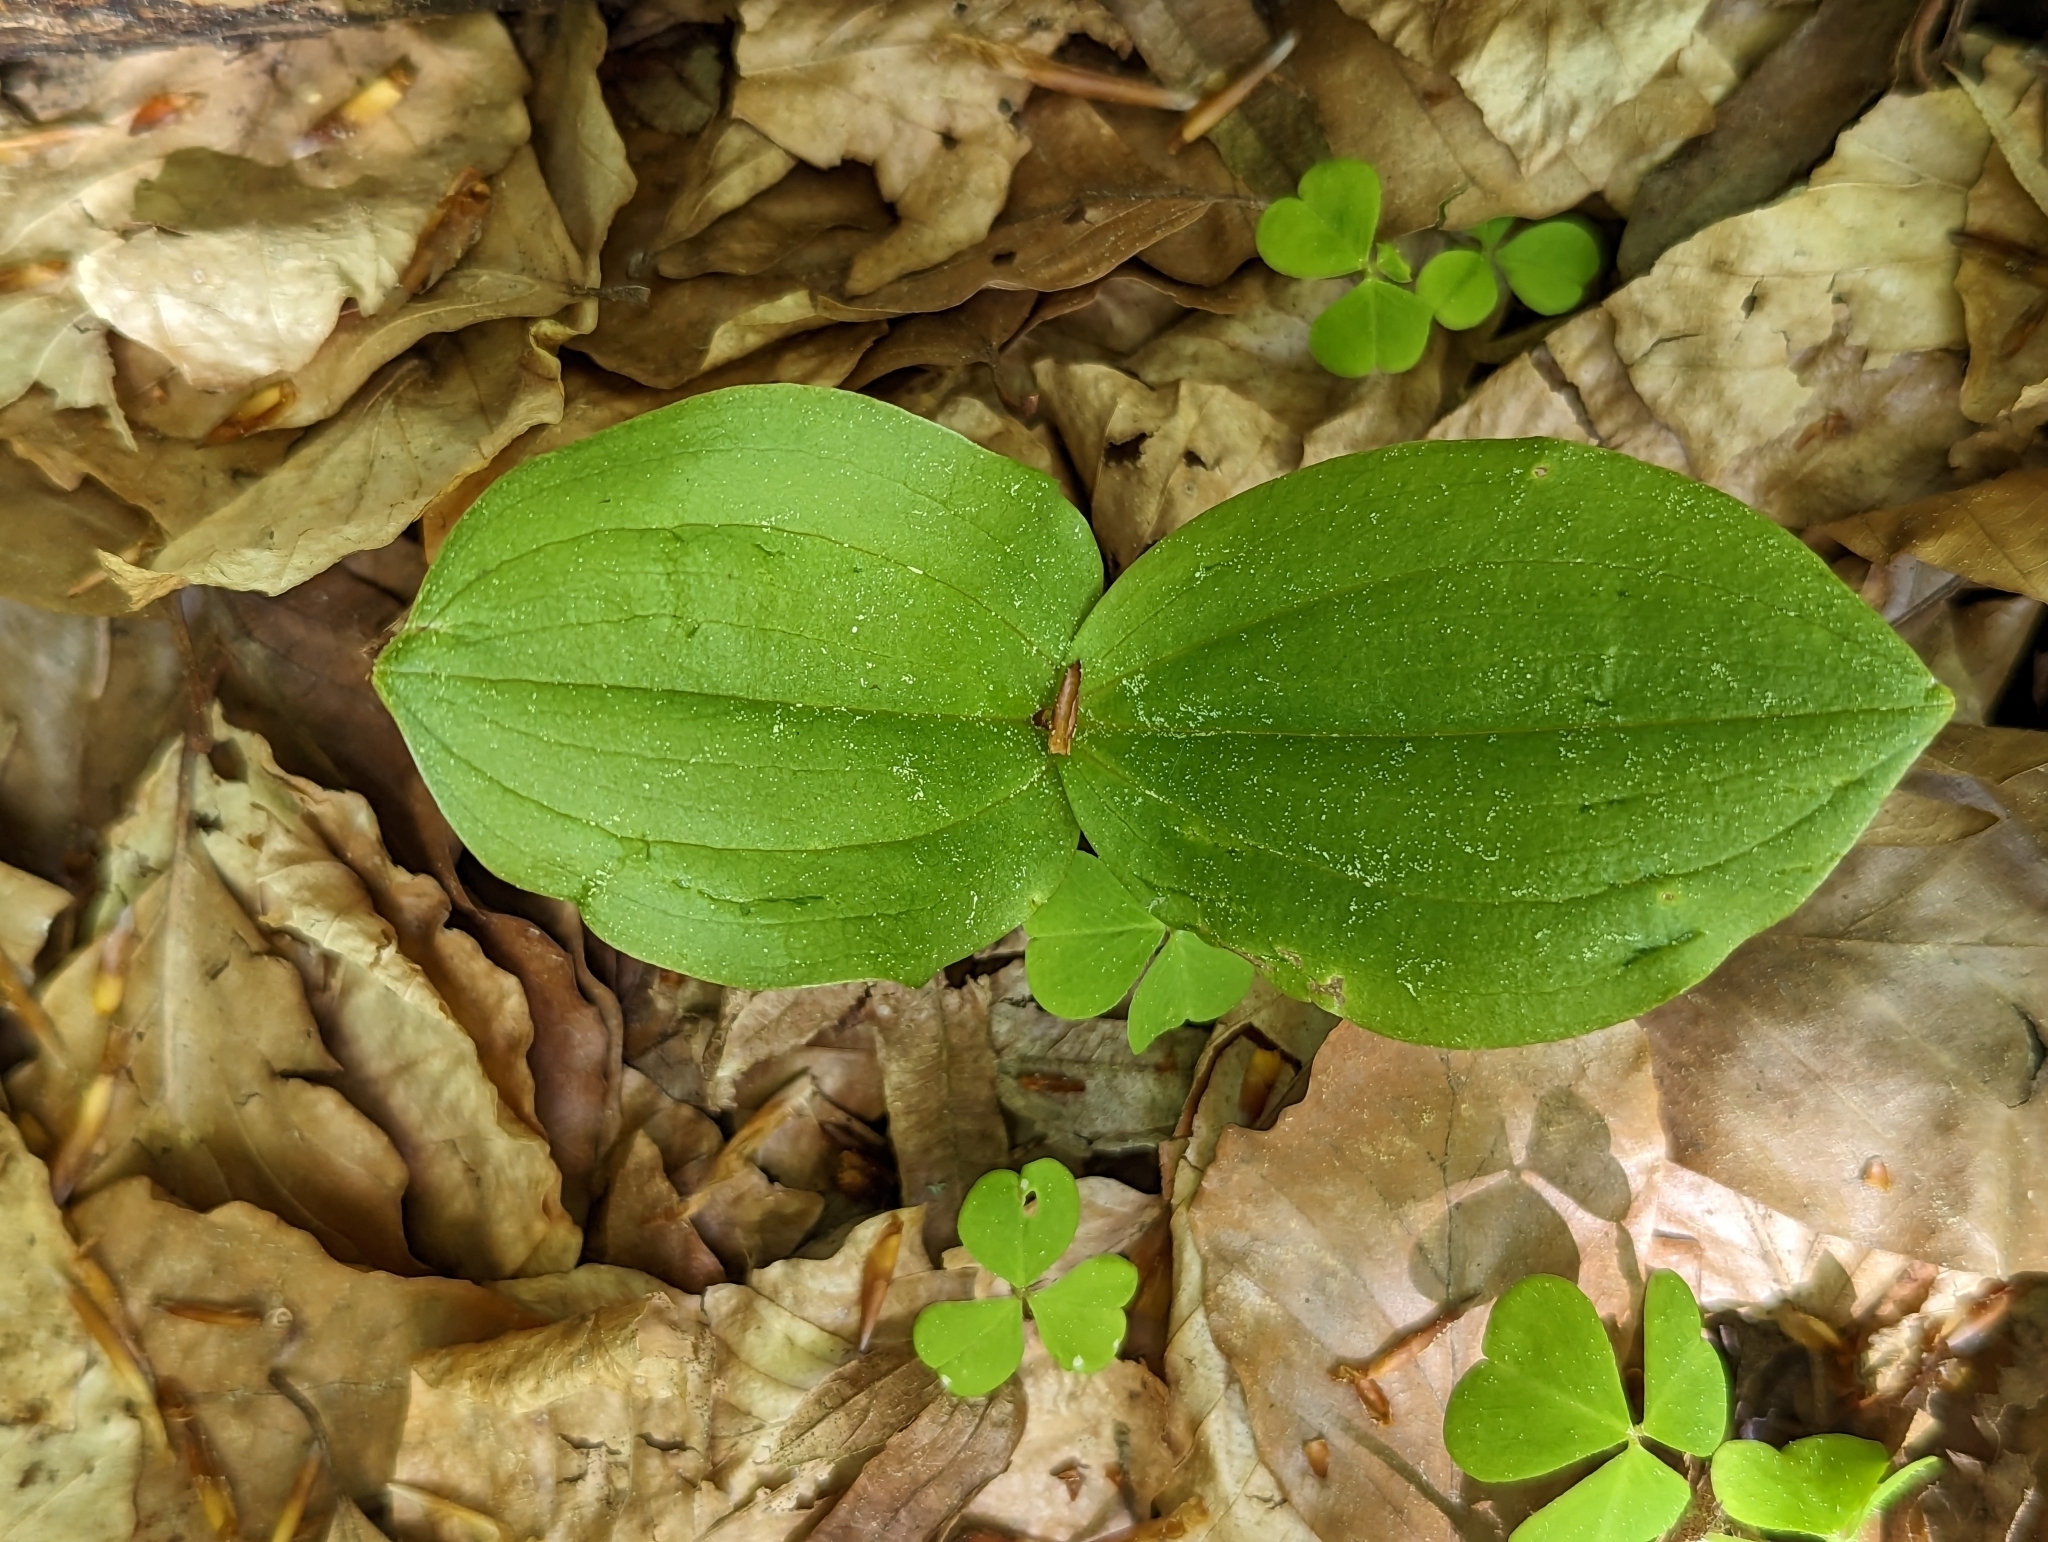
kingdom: Plantae
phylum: Tracheophyta
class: Liliopsida
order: Asparagales
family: Orchidaceae
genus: Neottia
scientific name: Neottia ovata
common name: Common twayblade
